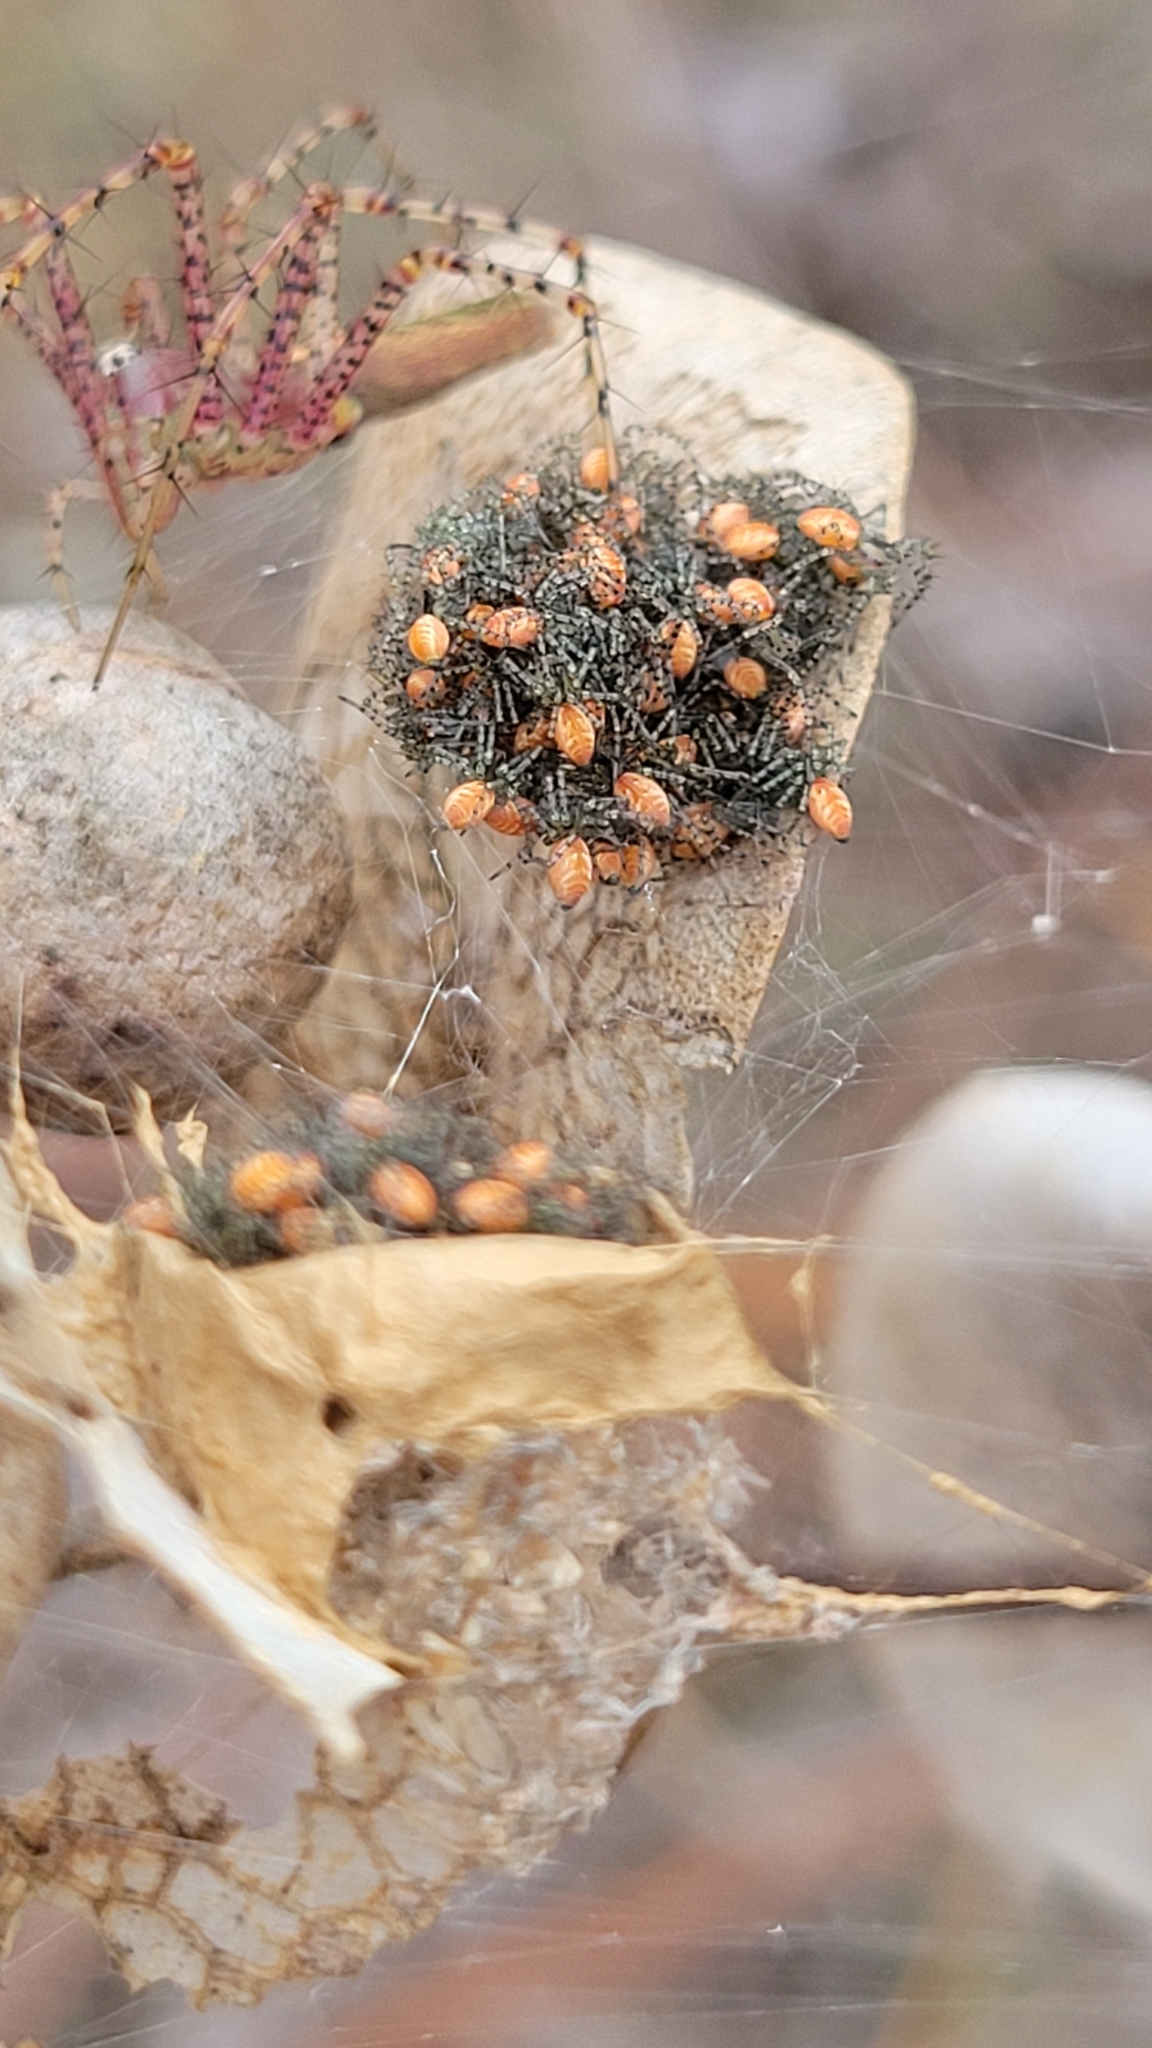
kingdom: Animalia
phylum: Arthropoda
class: Arachnida
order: Araneae
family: Oxyopidae
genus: Peucetia
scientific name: Peucetia viridans
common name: Lynx spiders
